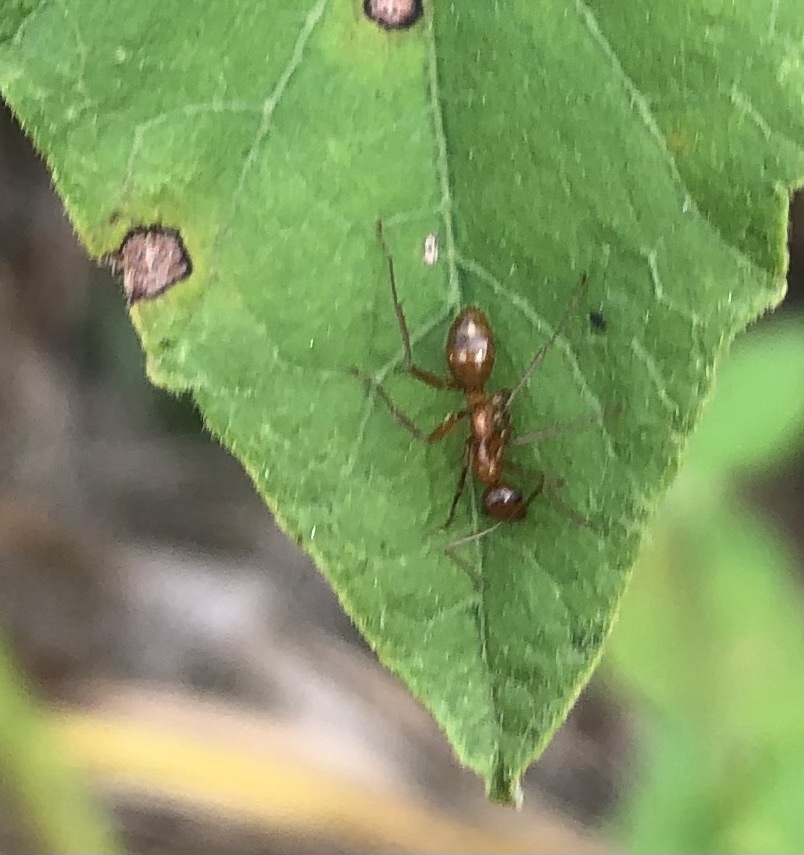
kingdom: Animalia
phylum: Arthropoda
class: Insecta
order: Hymenoptera
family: Formicidae
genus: Formica
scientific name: Formica pallidefulva
